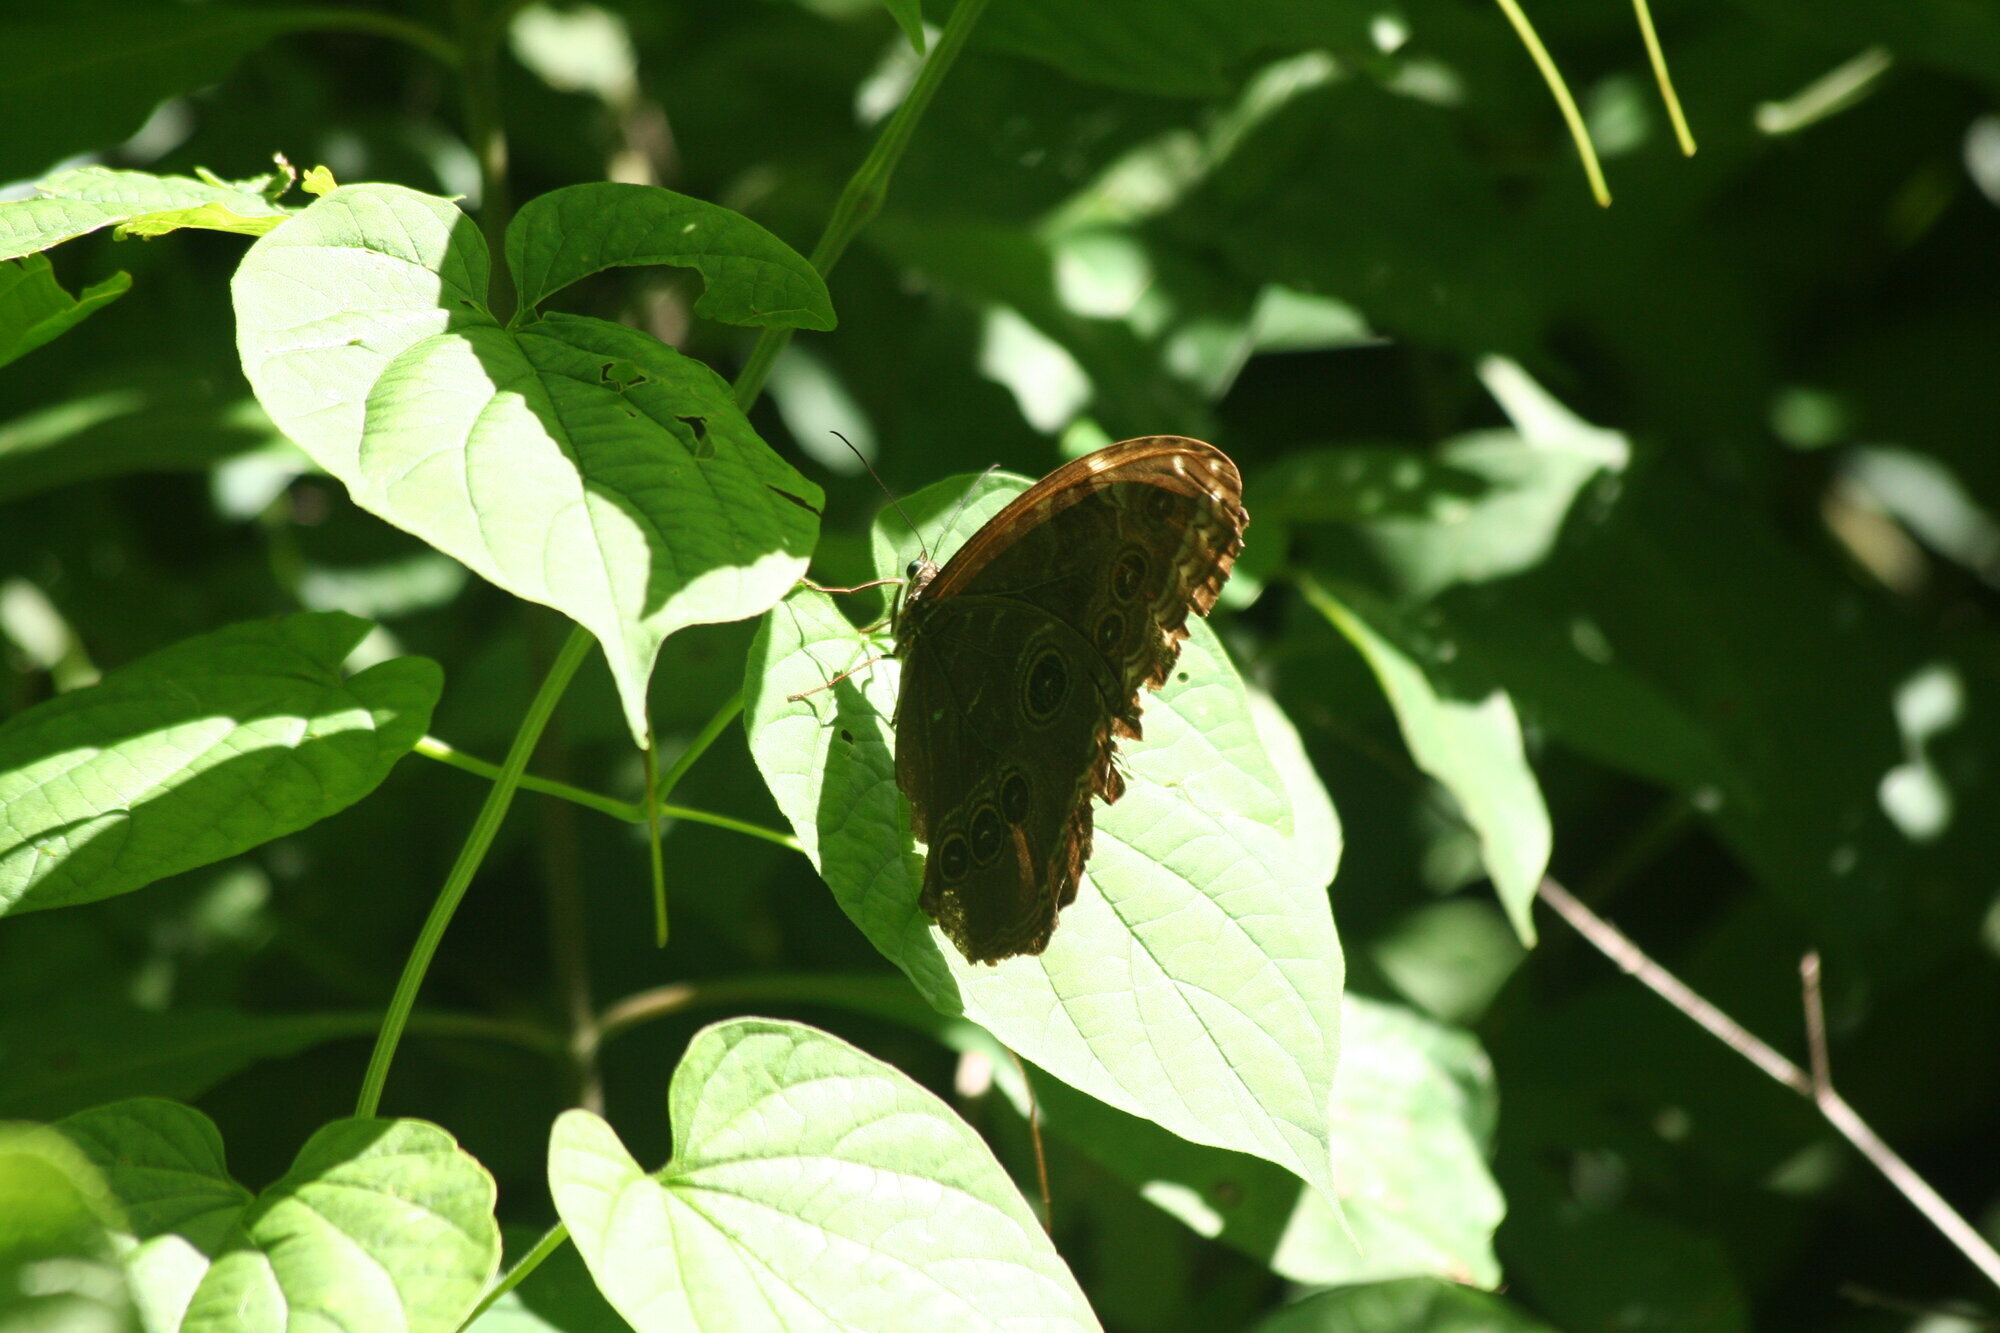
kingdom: Animalia
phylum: Arthropoda
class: Insecta
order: Lepidoptera
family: Nymphalidae
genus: Morpho
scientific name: Morpho helenor
